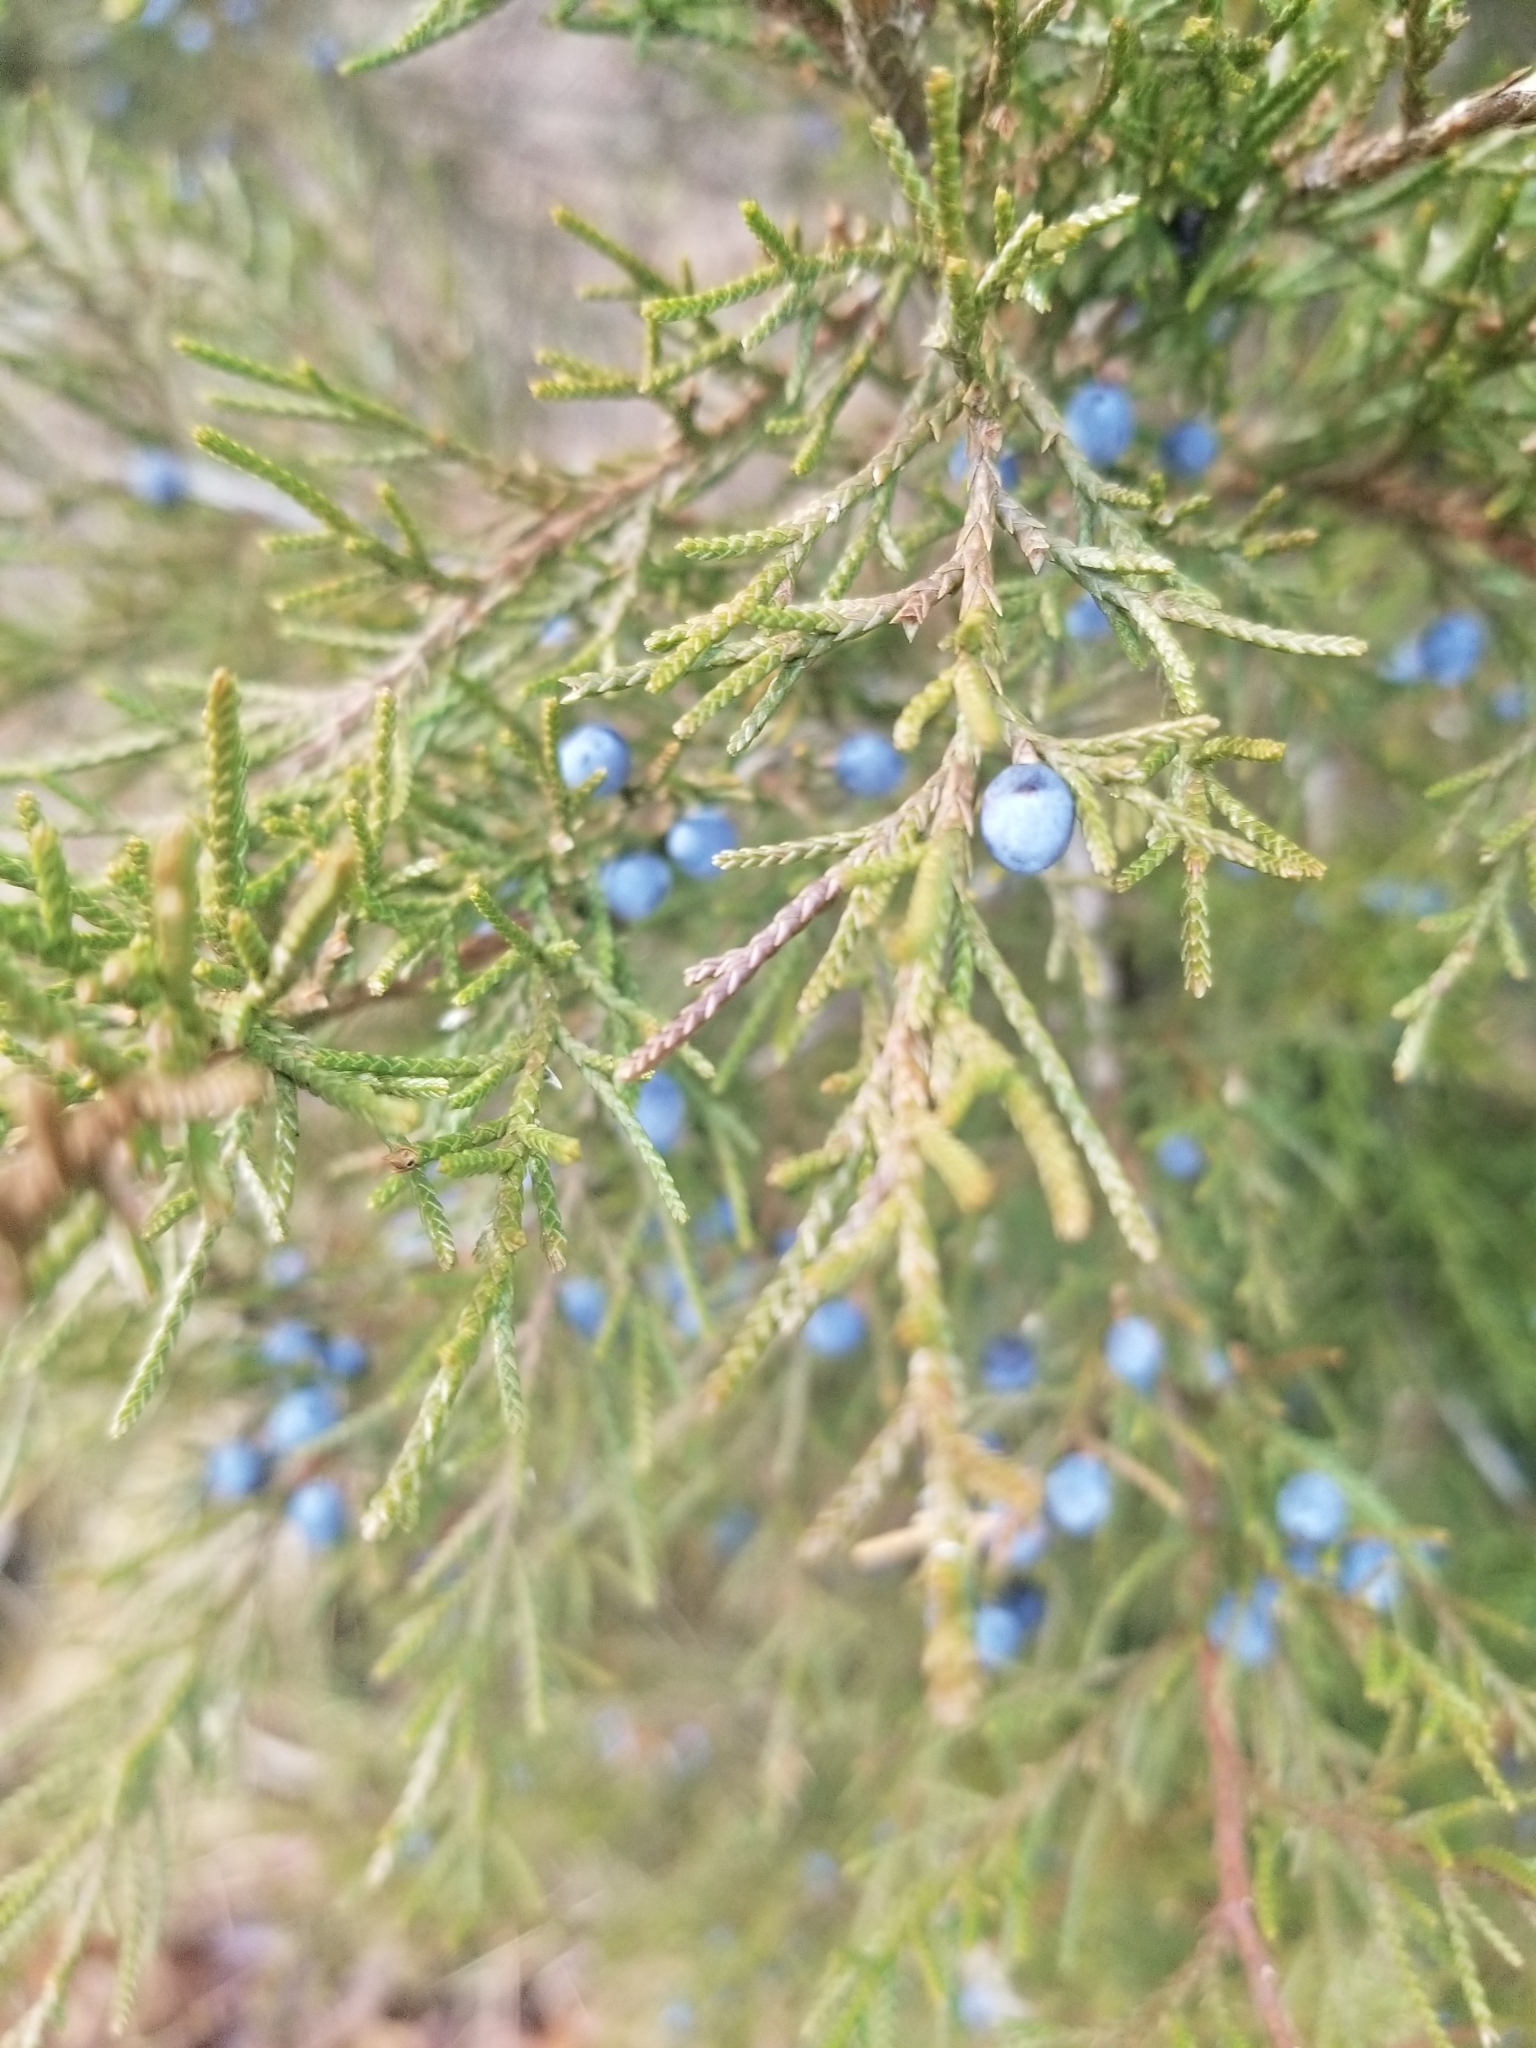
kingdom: Plantae
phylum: Tracheophyta
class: Pinopsida
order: Pinales
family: Cupressaceae
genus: Juniperus
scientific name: Juniperus virginiana
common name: Red juniper
